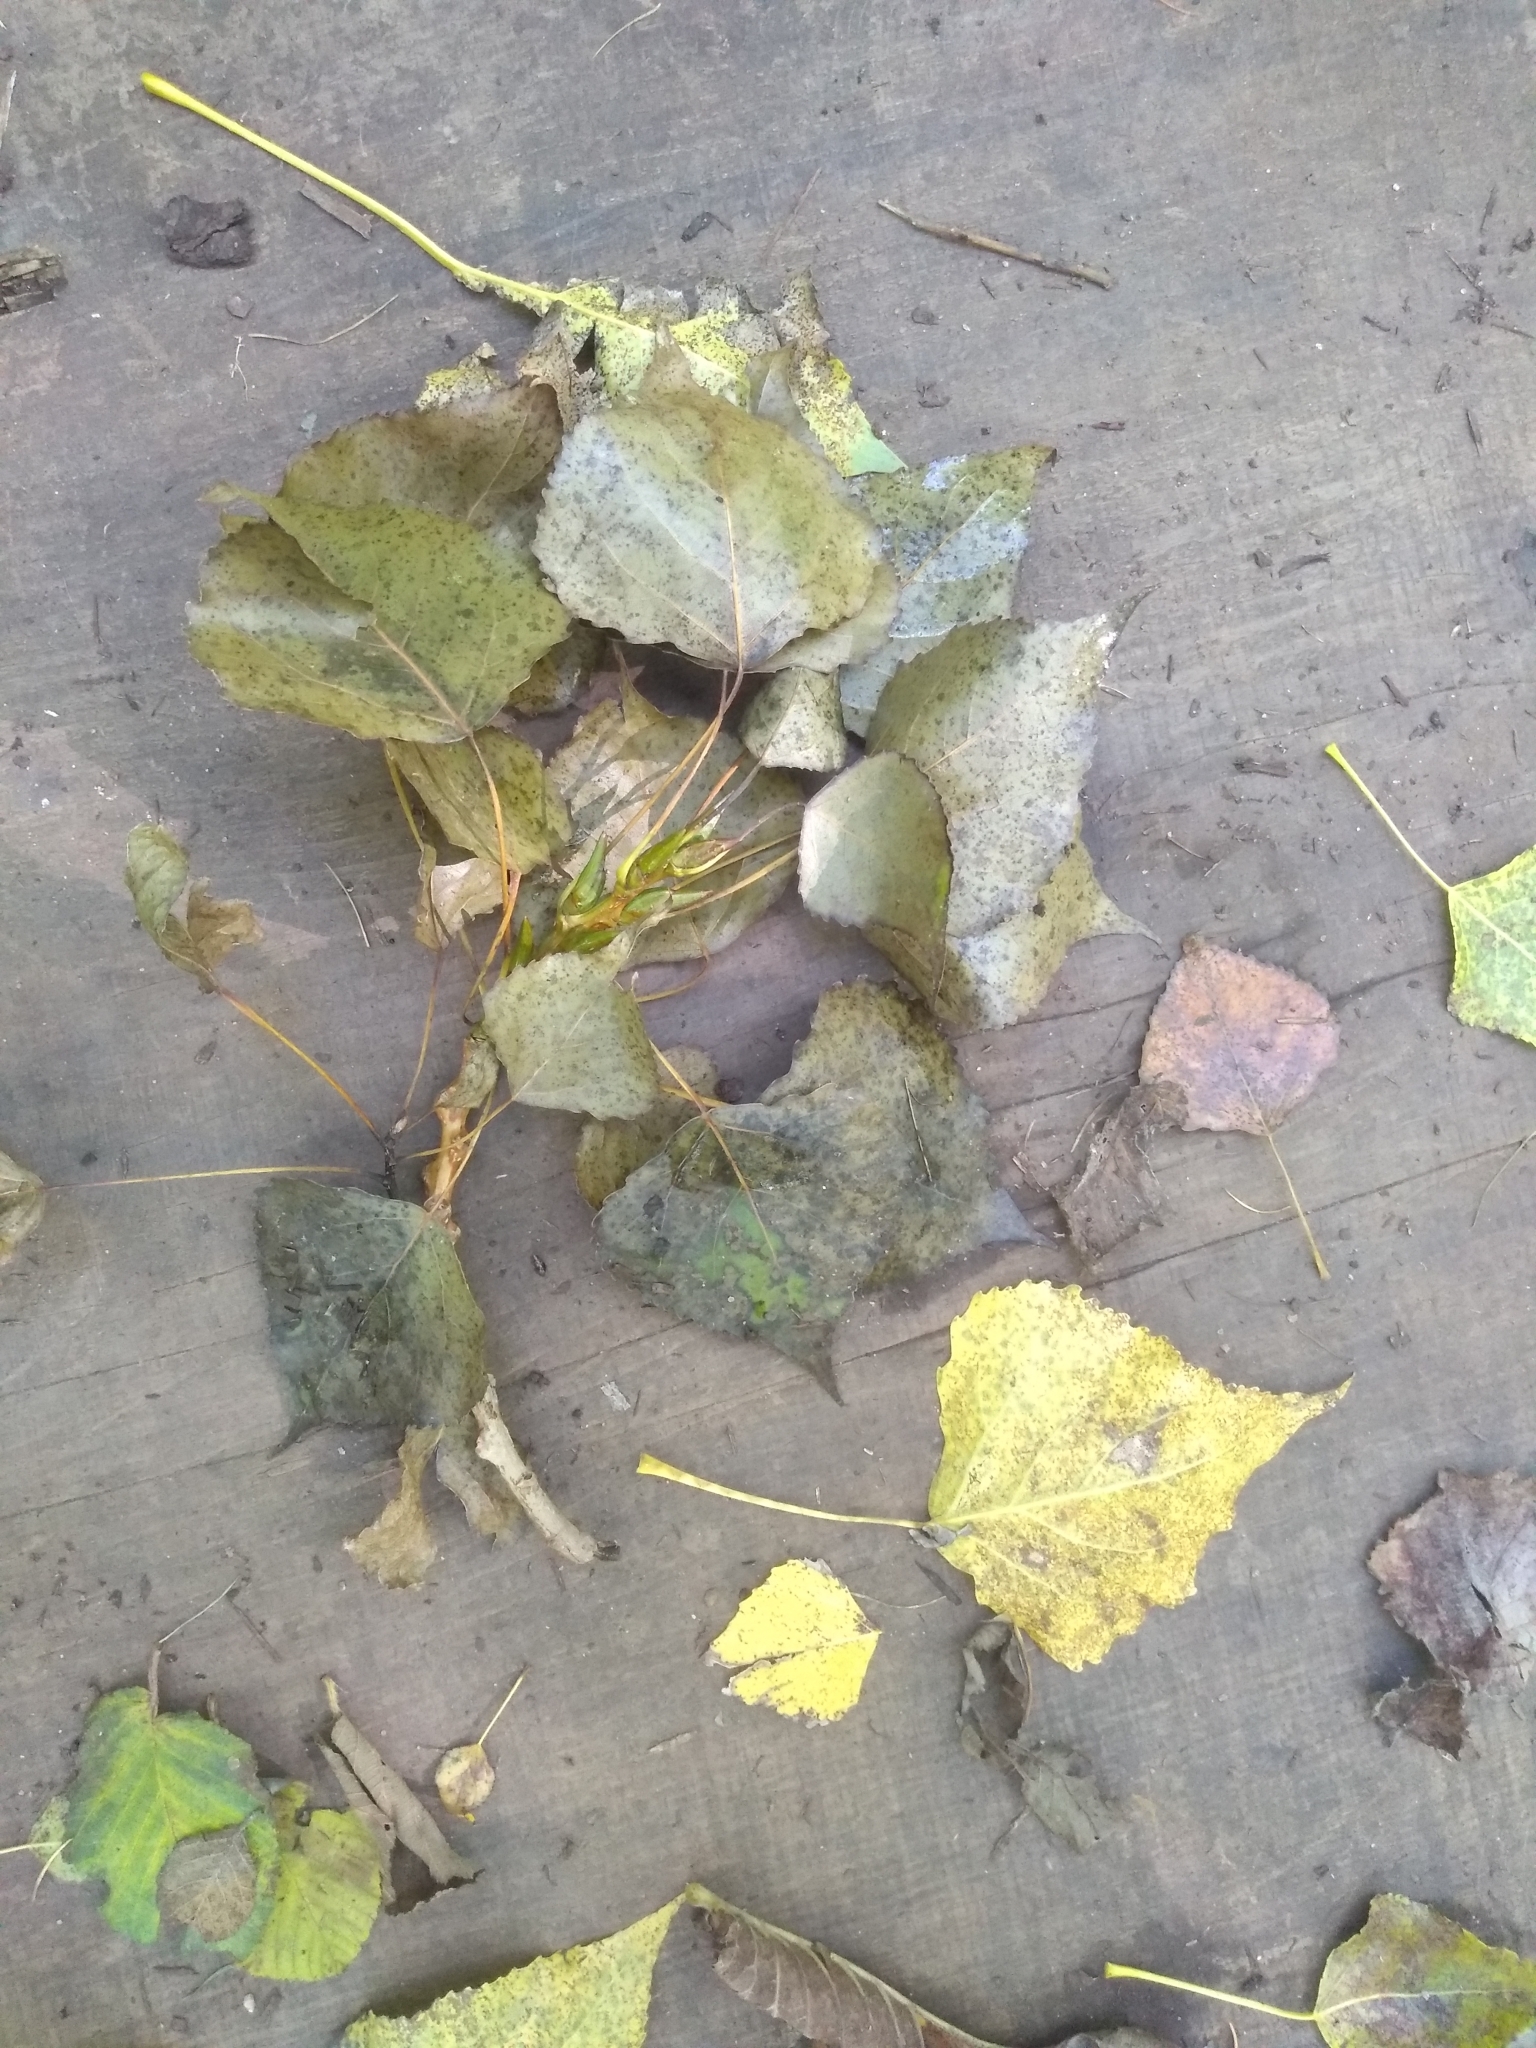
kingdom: Plantae
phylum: Tracheophyta
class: Magnoliopsida
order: Malpighiales
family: Salicaceae
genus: Populus
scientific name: Populus nigra
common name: Black poplar
